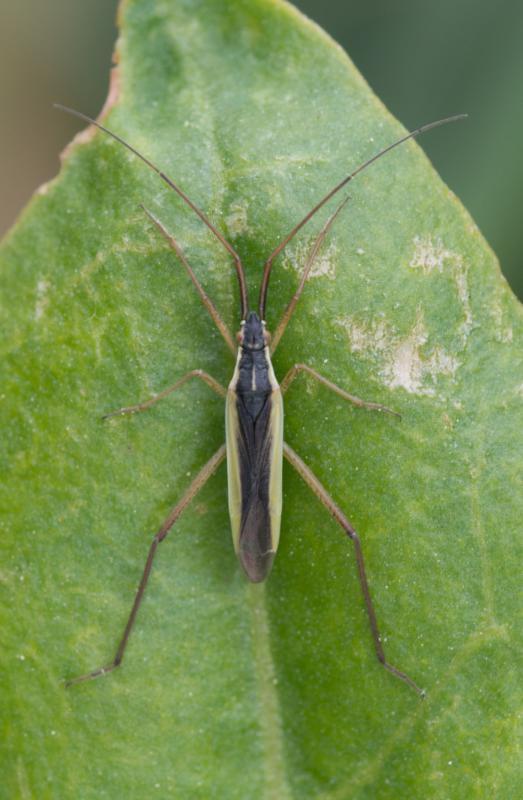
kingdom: Animalia
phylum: Arthropoda
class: Insecta
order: Hemiptera
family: Miridae
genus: Notostira
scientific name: Notostira elongata
